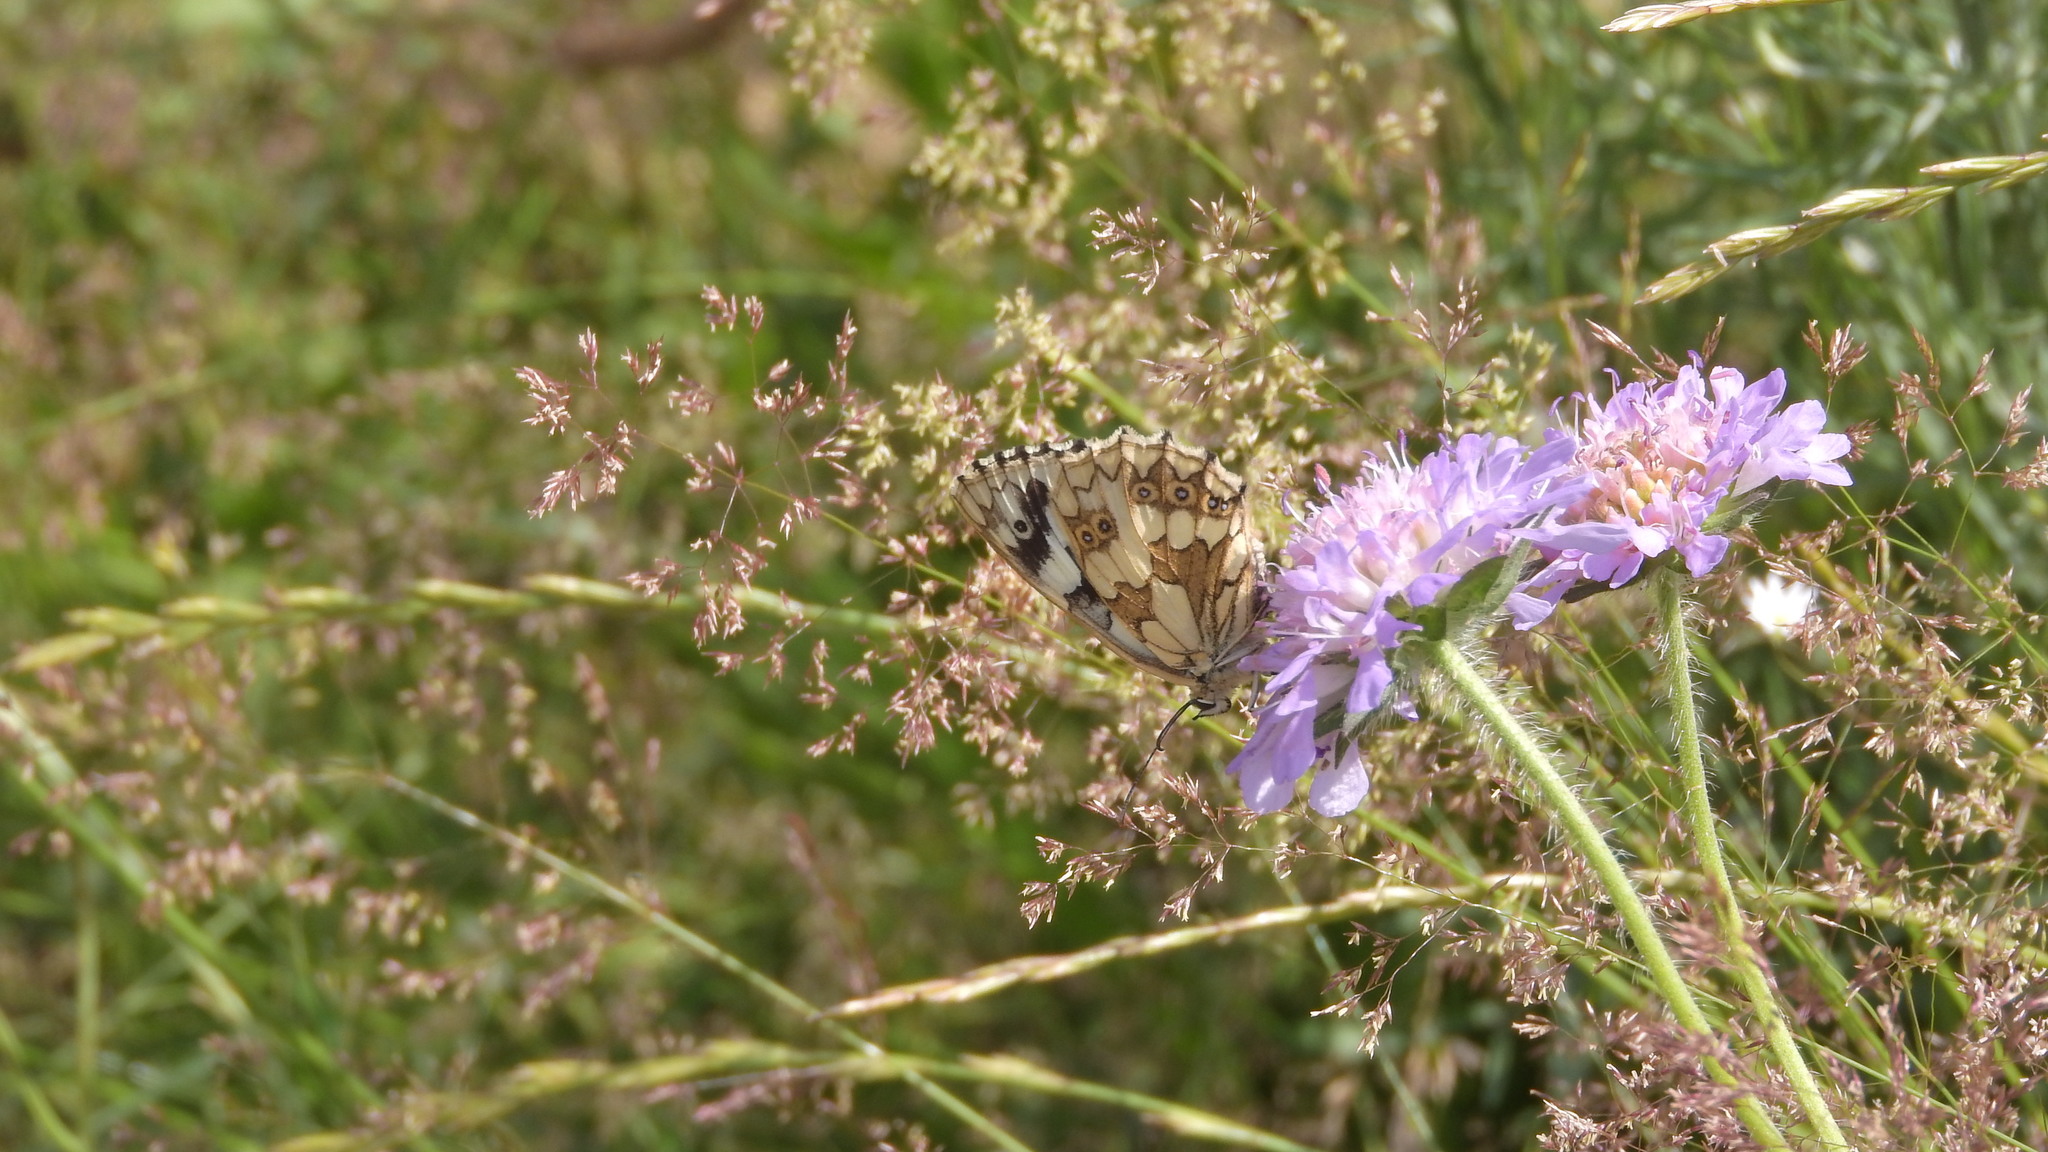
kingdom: Animalia
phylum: Arthropoda
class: Insecta
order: Lepidoptera
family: Nymphalidae
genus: Melanargia
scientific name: Melanargia galathea
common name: Marbled white
